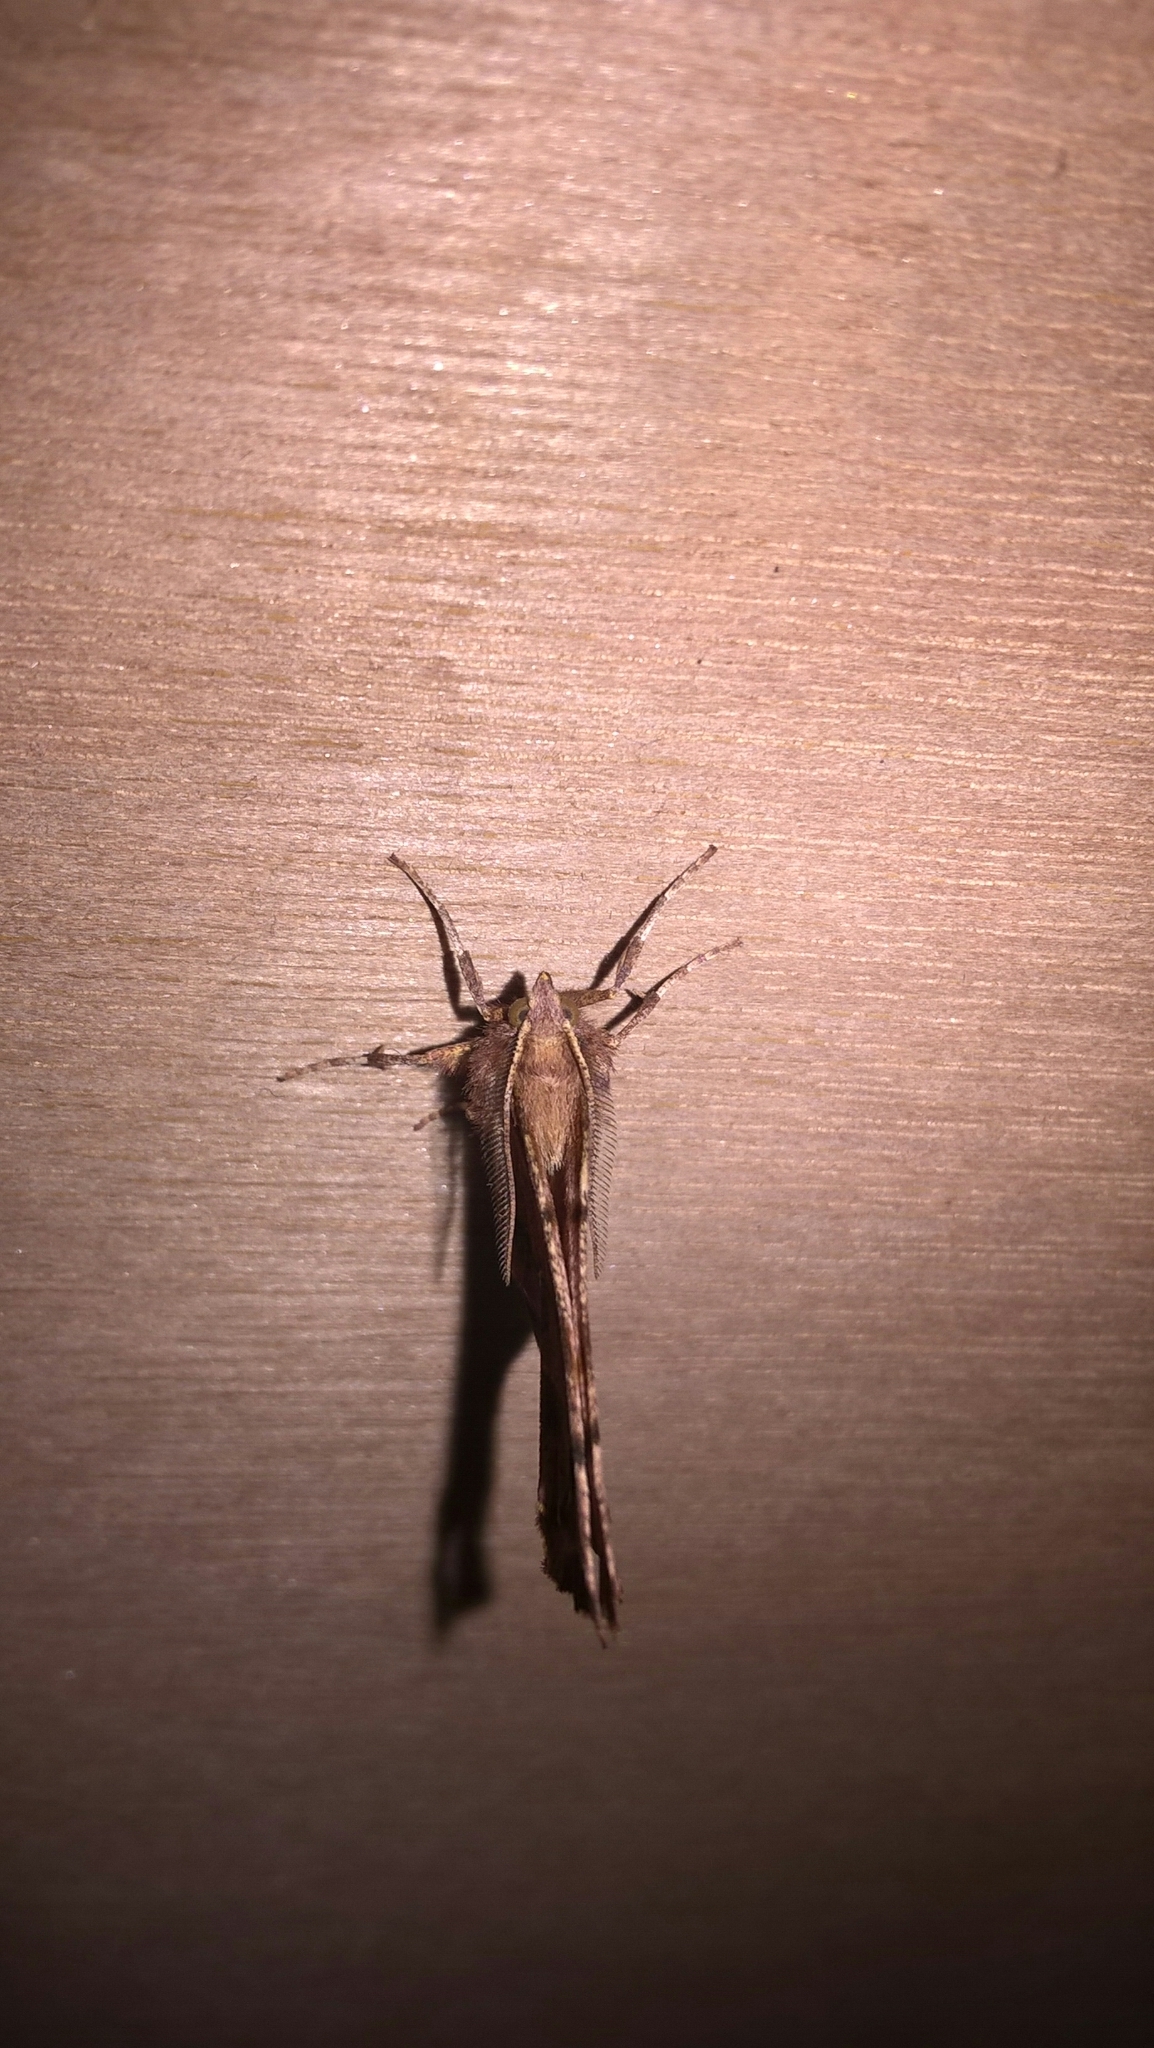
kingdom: Animalia
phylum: Arthropoda
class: Insecta
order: Lepidoptera
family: Geometridae
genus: Selenia
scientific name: Selenia dentaria
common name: Early thorn
